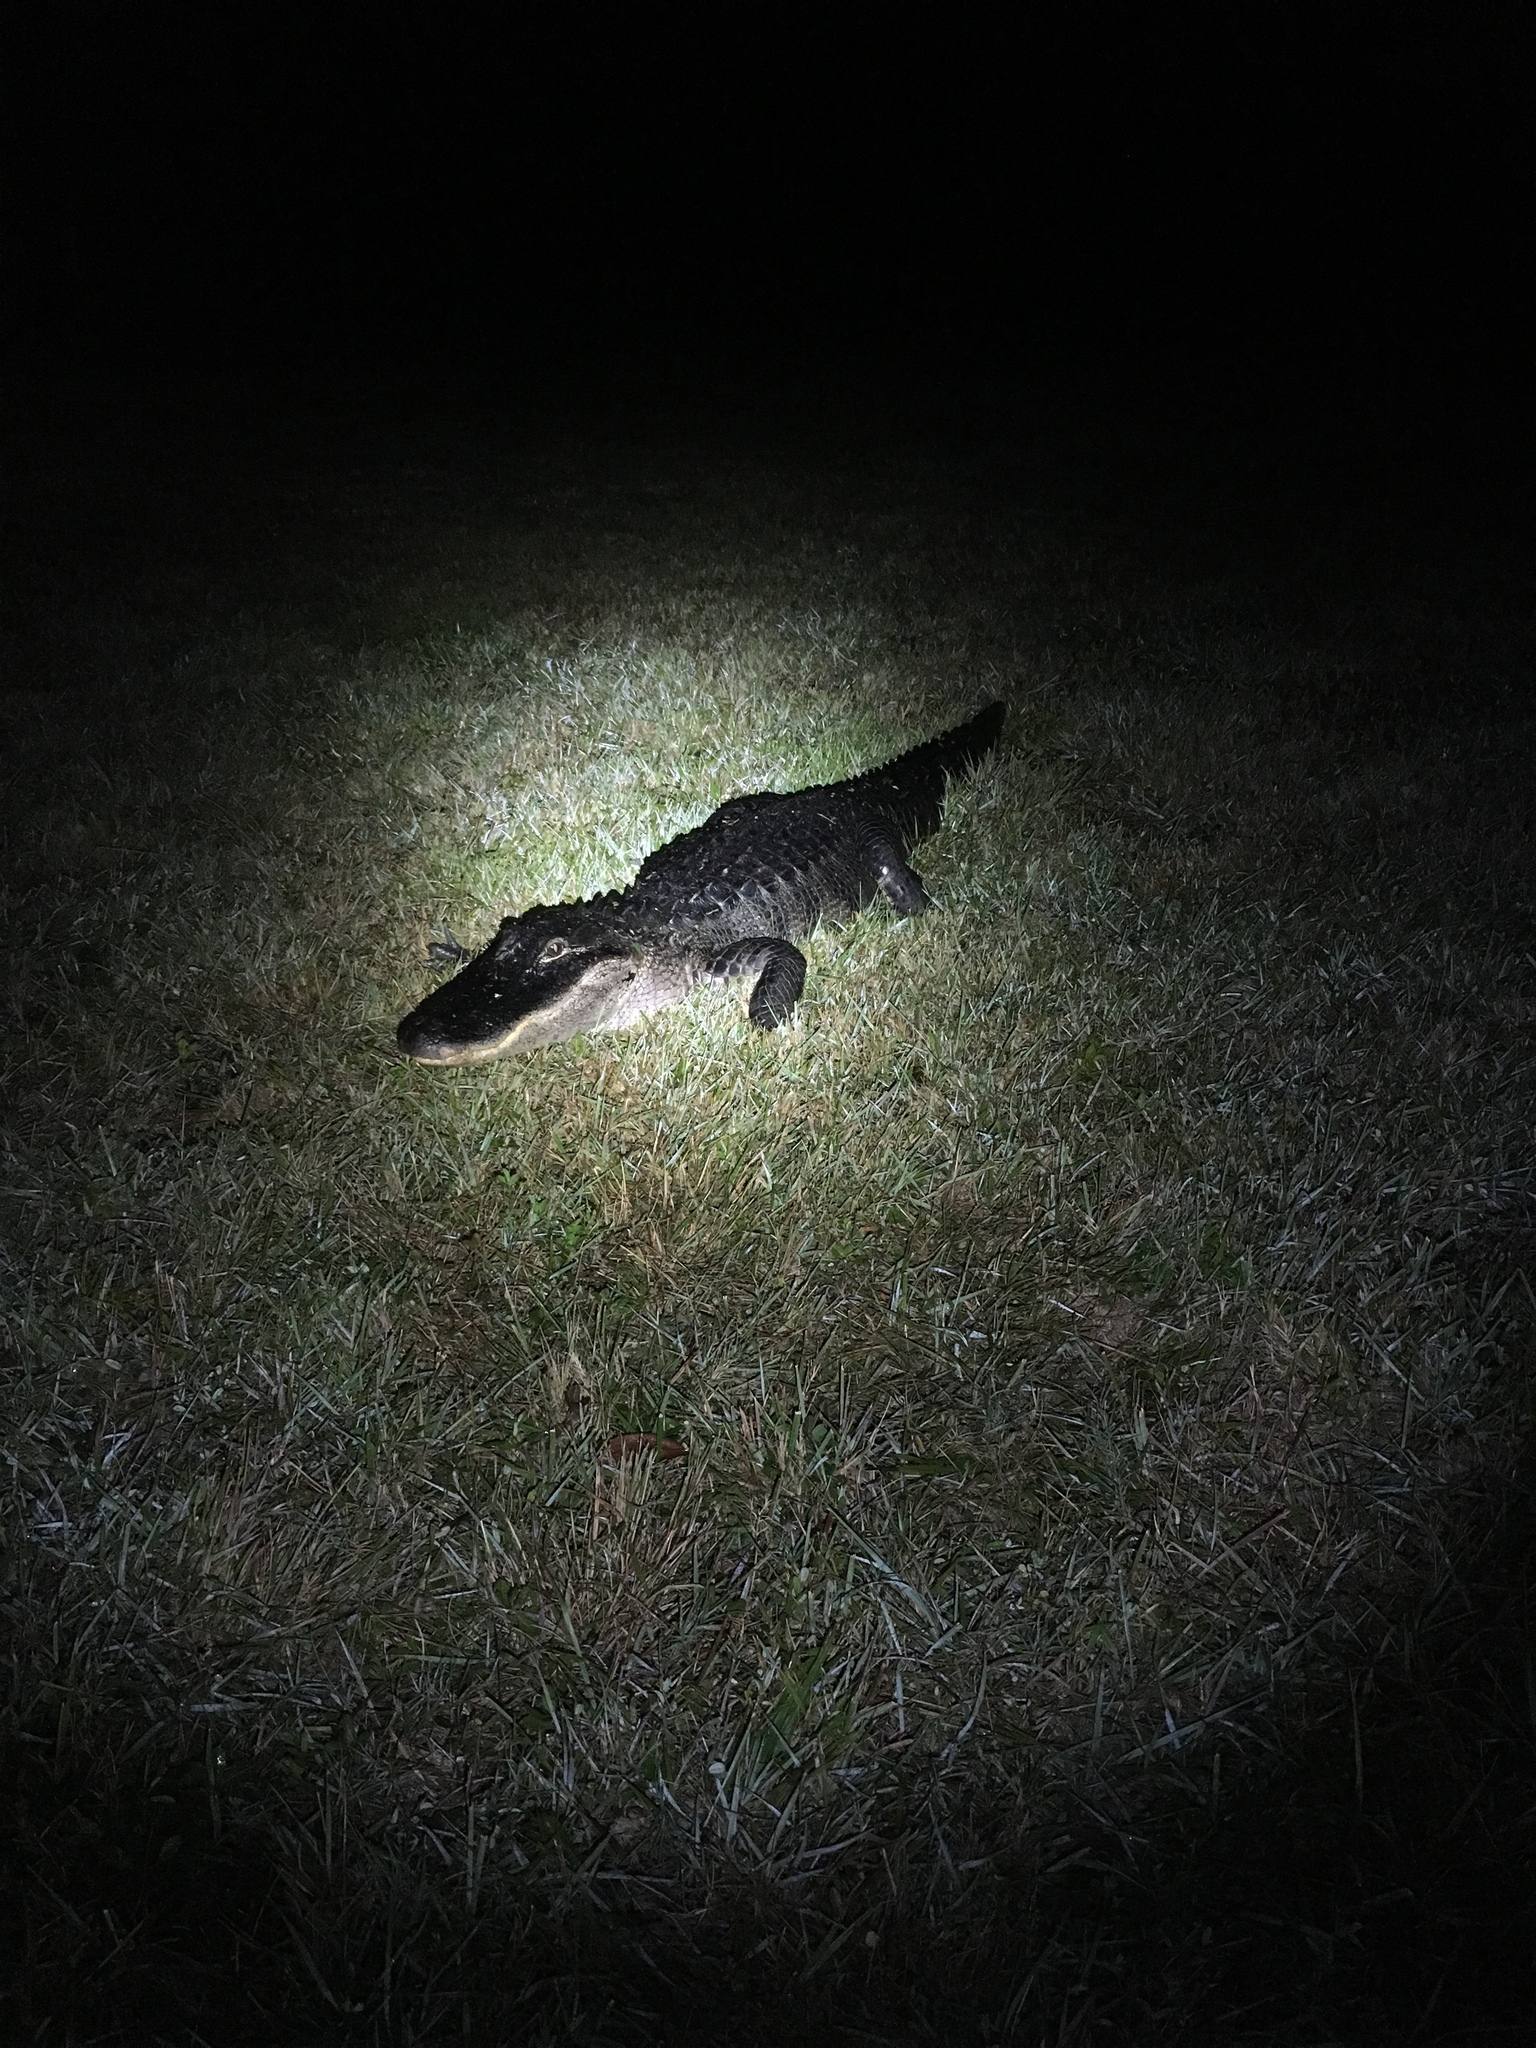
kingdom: Animalia
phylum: Chordata
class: Crocodylia
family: Alligatoridae
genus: Alligator
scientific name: Alligator mississippiensis
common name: American alligator
